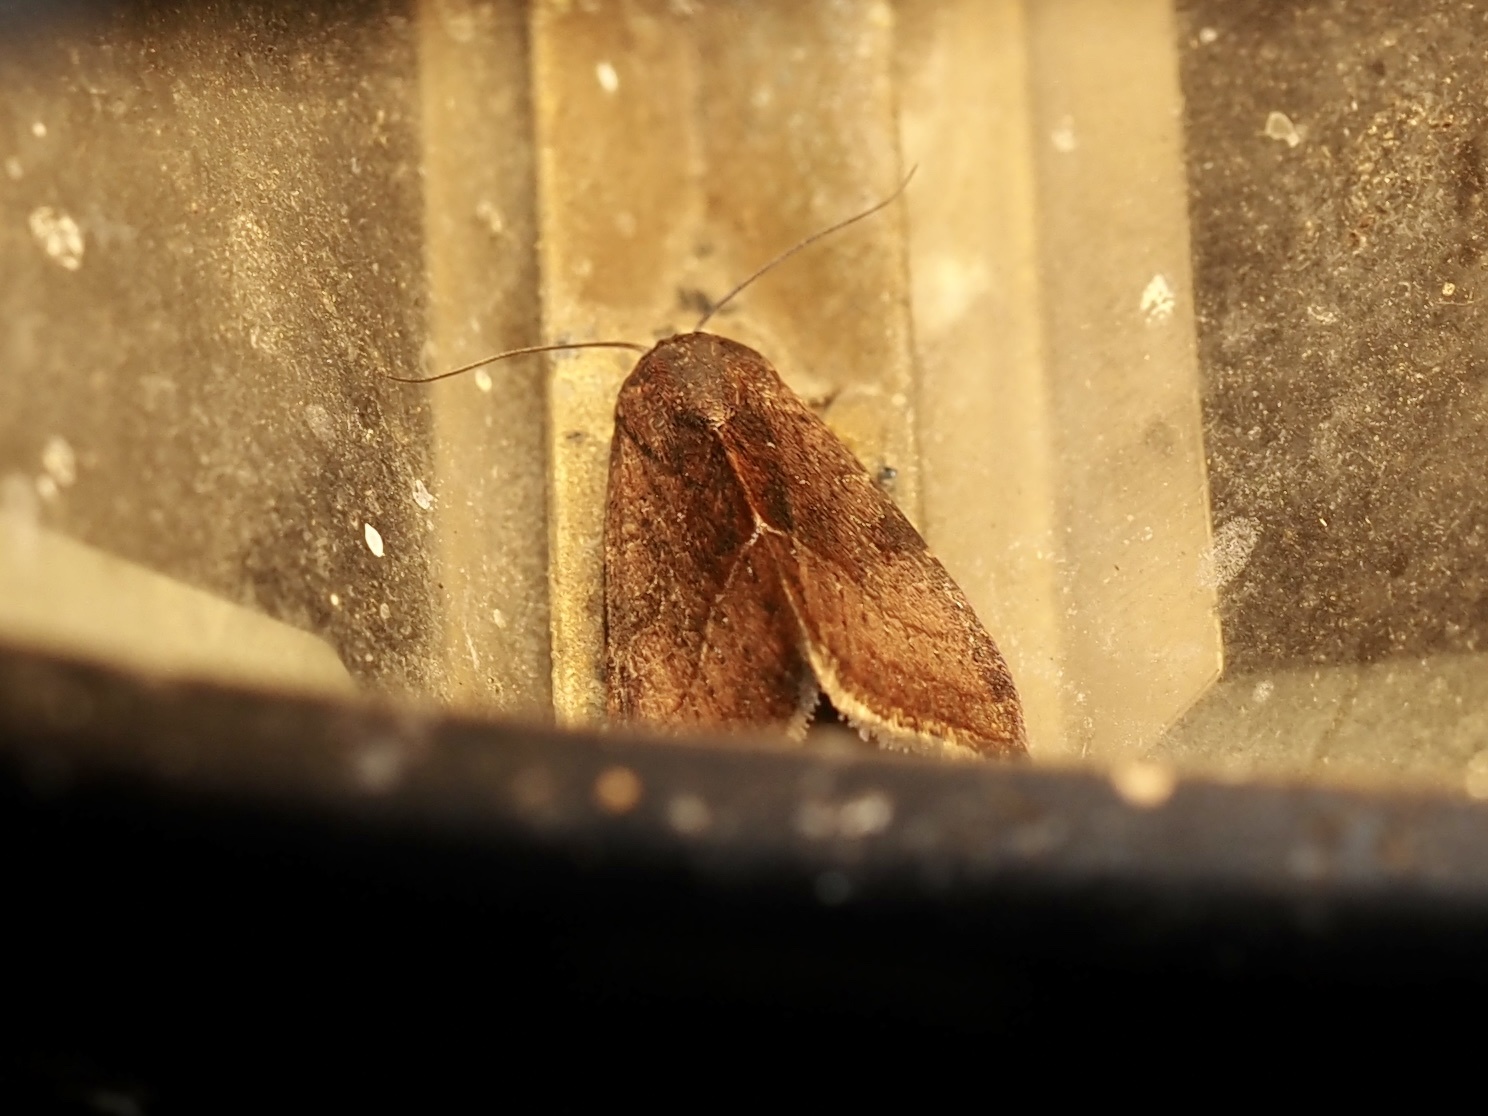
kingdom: Animalia
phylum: Arthropoda
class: Insecta
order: Lepidoptera
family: Noctuidae
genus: Galgula
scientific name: Galgula partita
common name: Wedgeling
